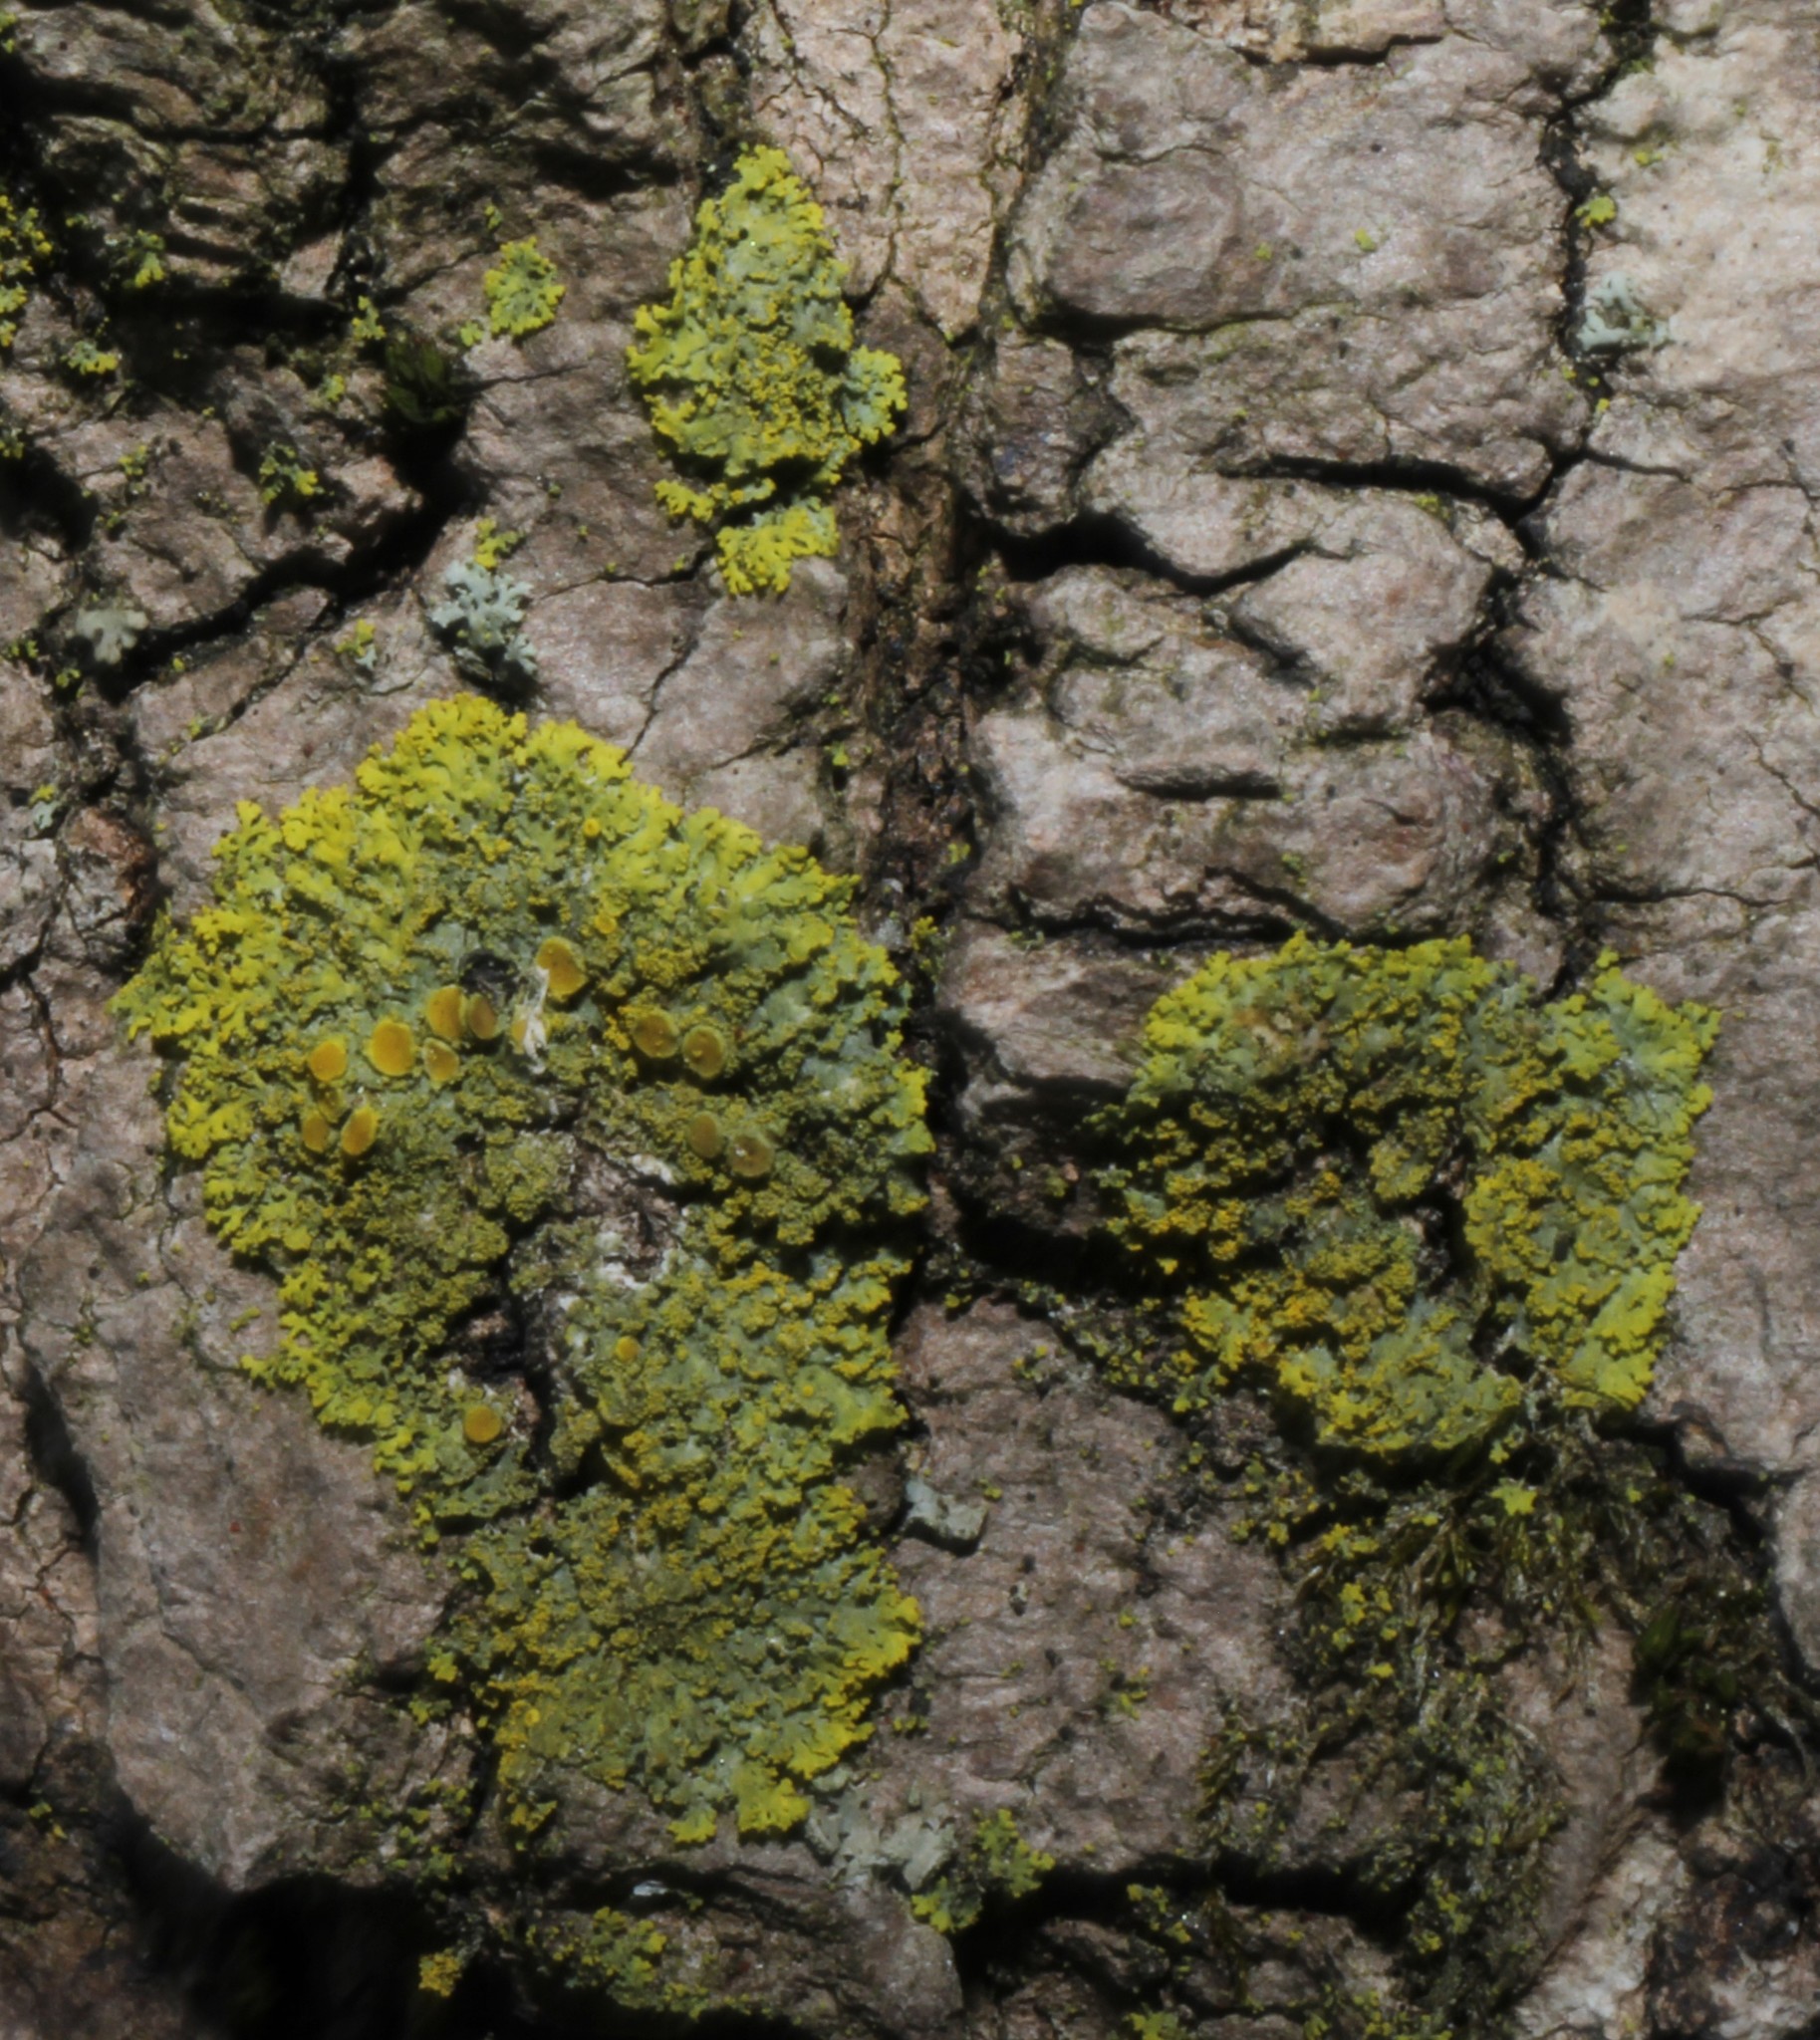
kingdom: Fungi
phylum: Ascomycota
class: Candelariomycetes
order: Candelariales
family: Candelariaceae
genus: Candelaria
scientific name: Candelaria concolor
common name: Candleflame lichen
